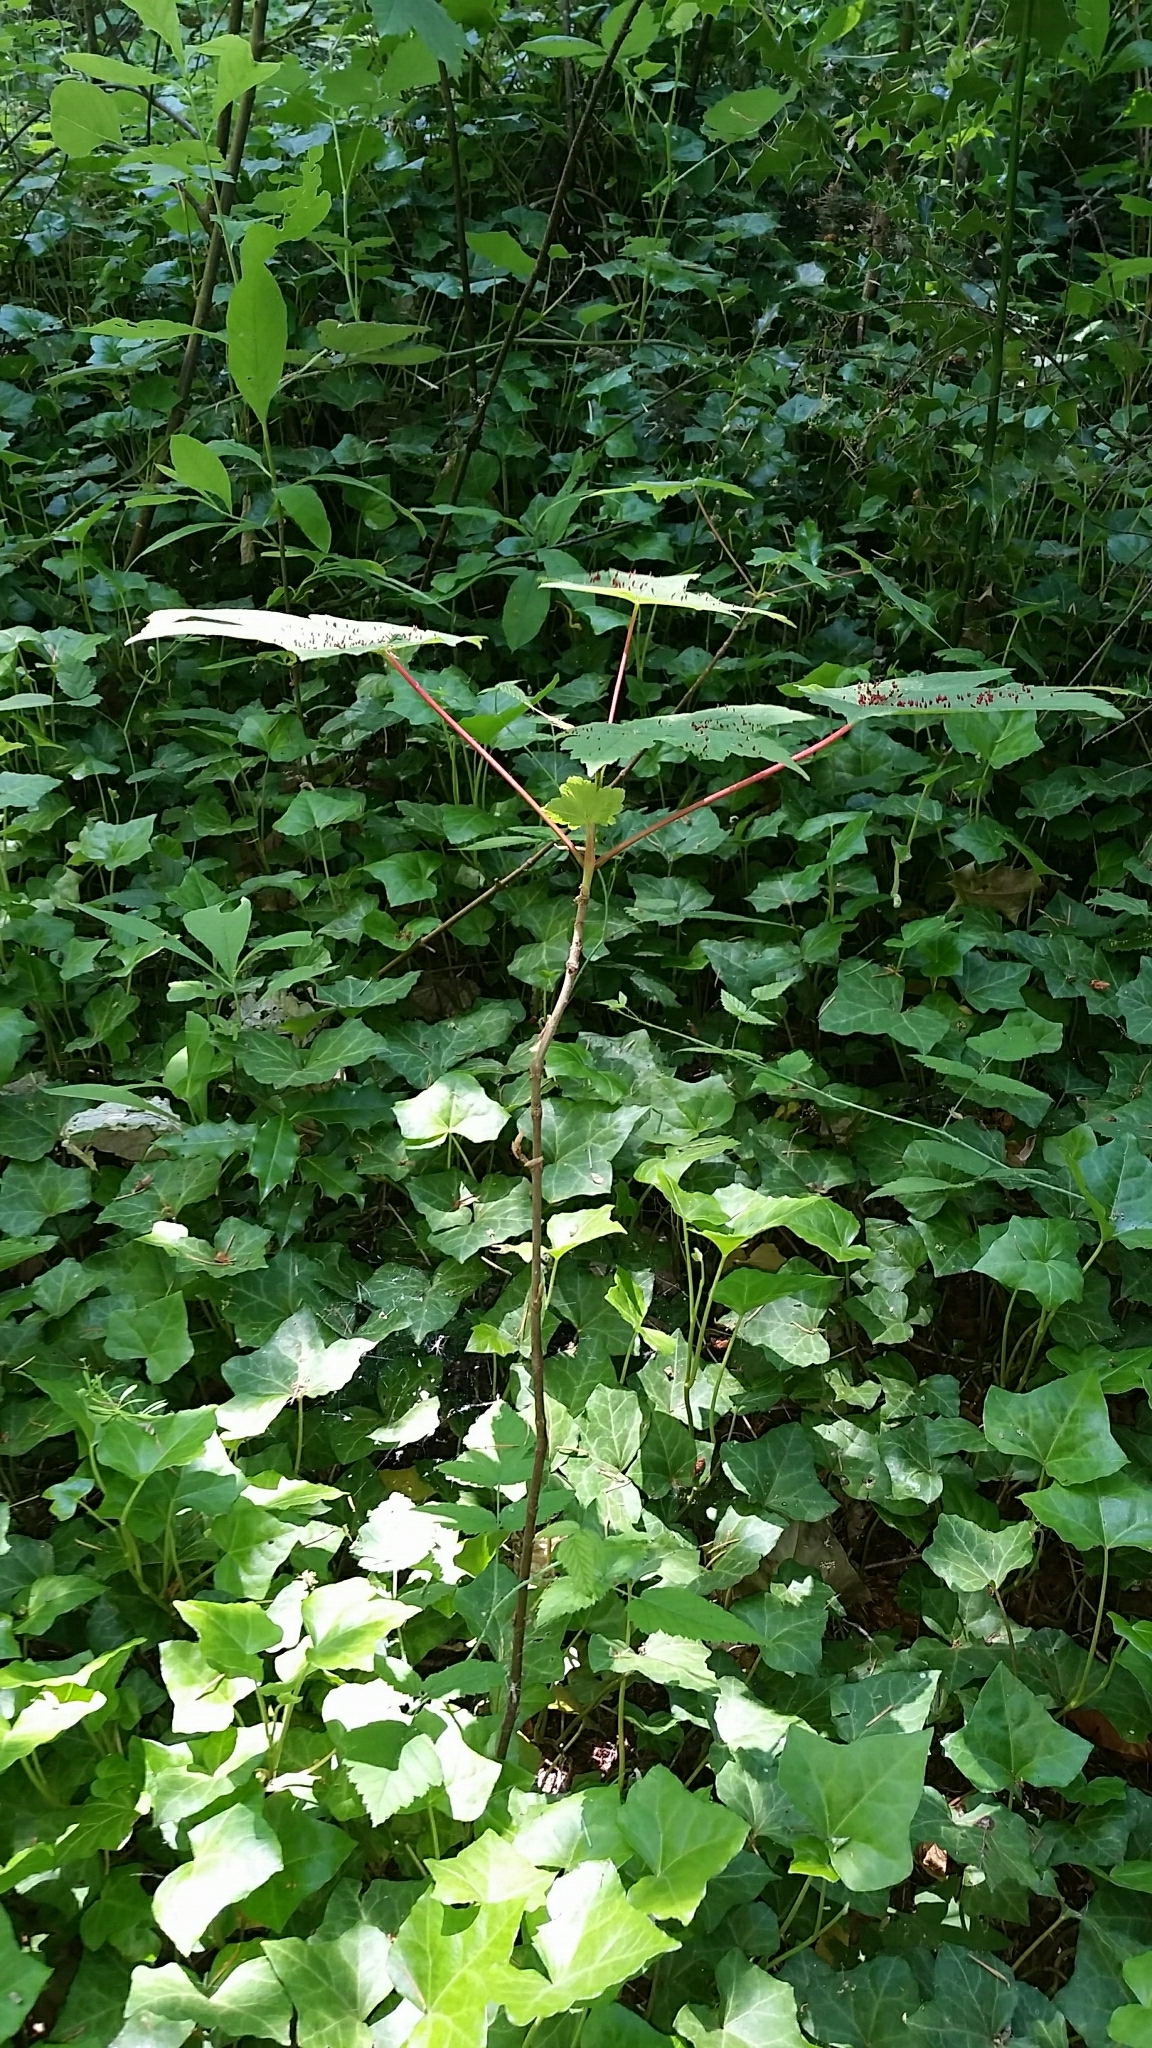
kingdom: Plantae
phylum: Tracheophyta
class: Magnoliopsida
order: Sapindales
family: Sapindaceae
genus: Acer
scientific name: Acer pseudoplatanus
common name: Sycamore
